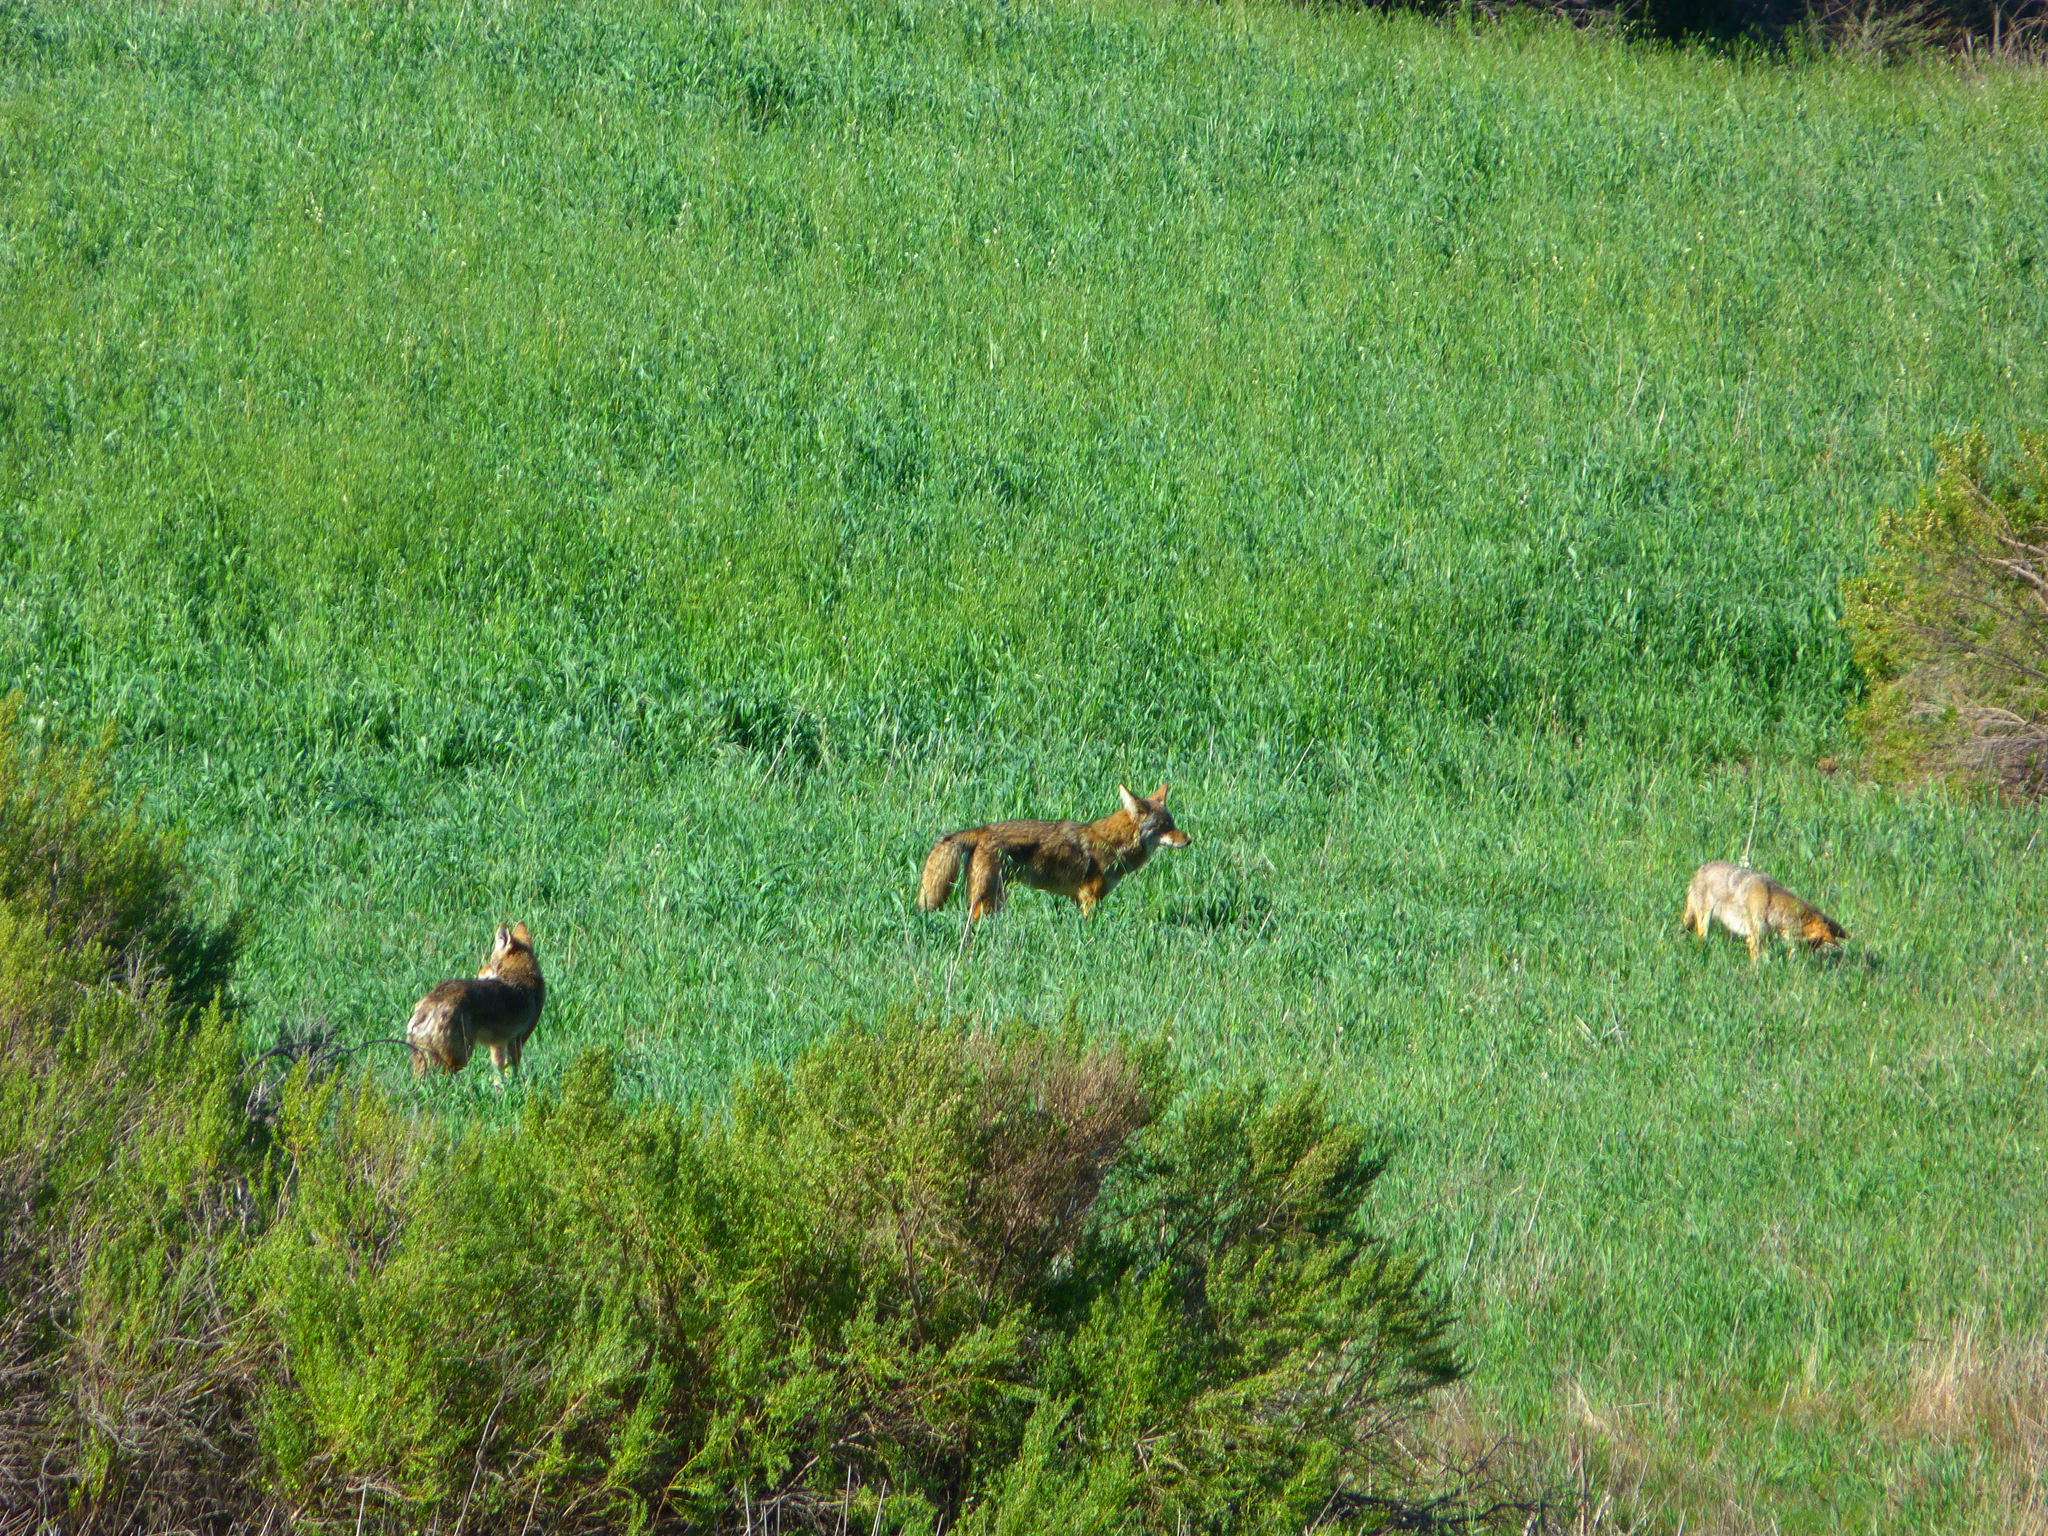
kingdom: Animalia
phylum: Chordata
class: Mammalia
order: Carnivora
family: Canidae
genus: Canis
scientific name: Canis latrans
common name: Coyote
